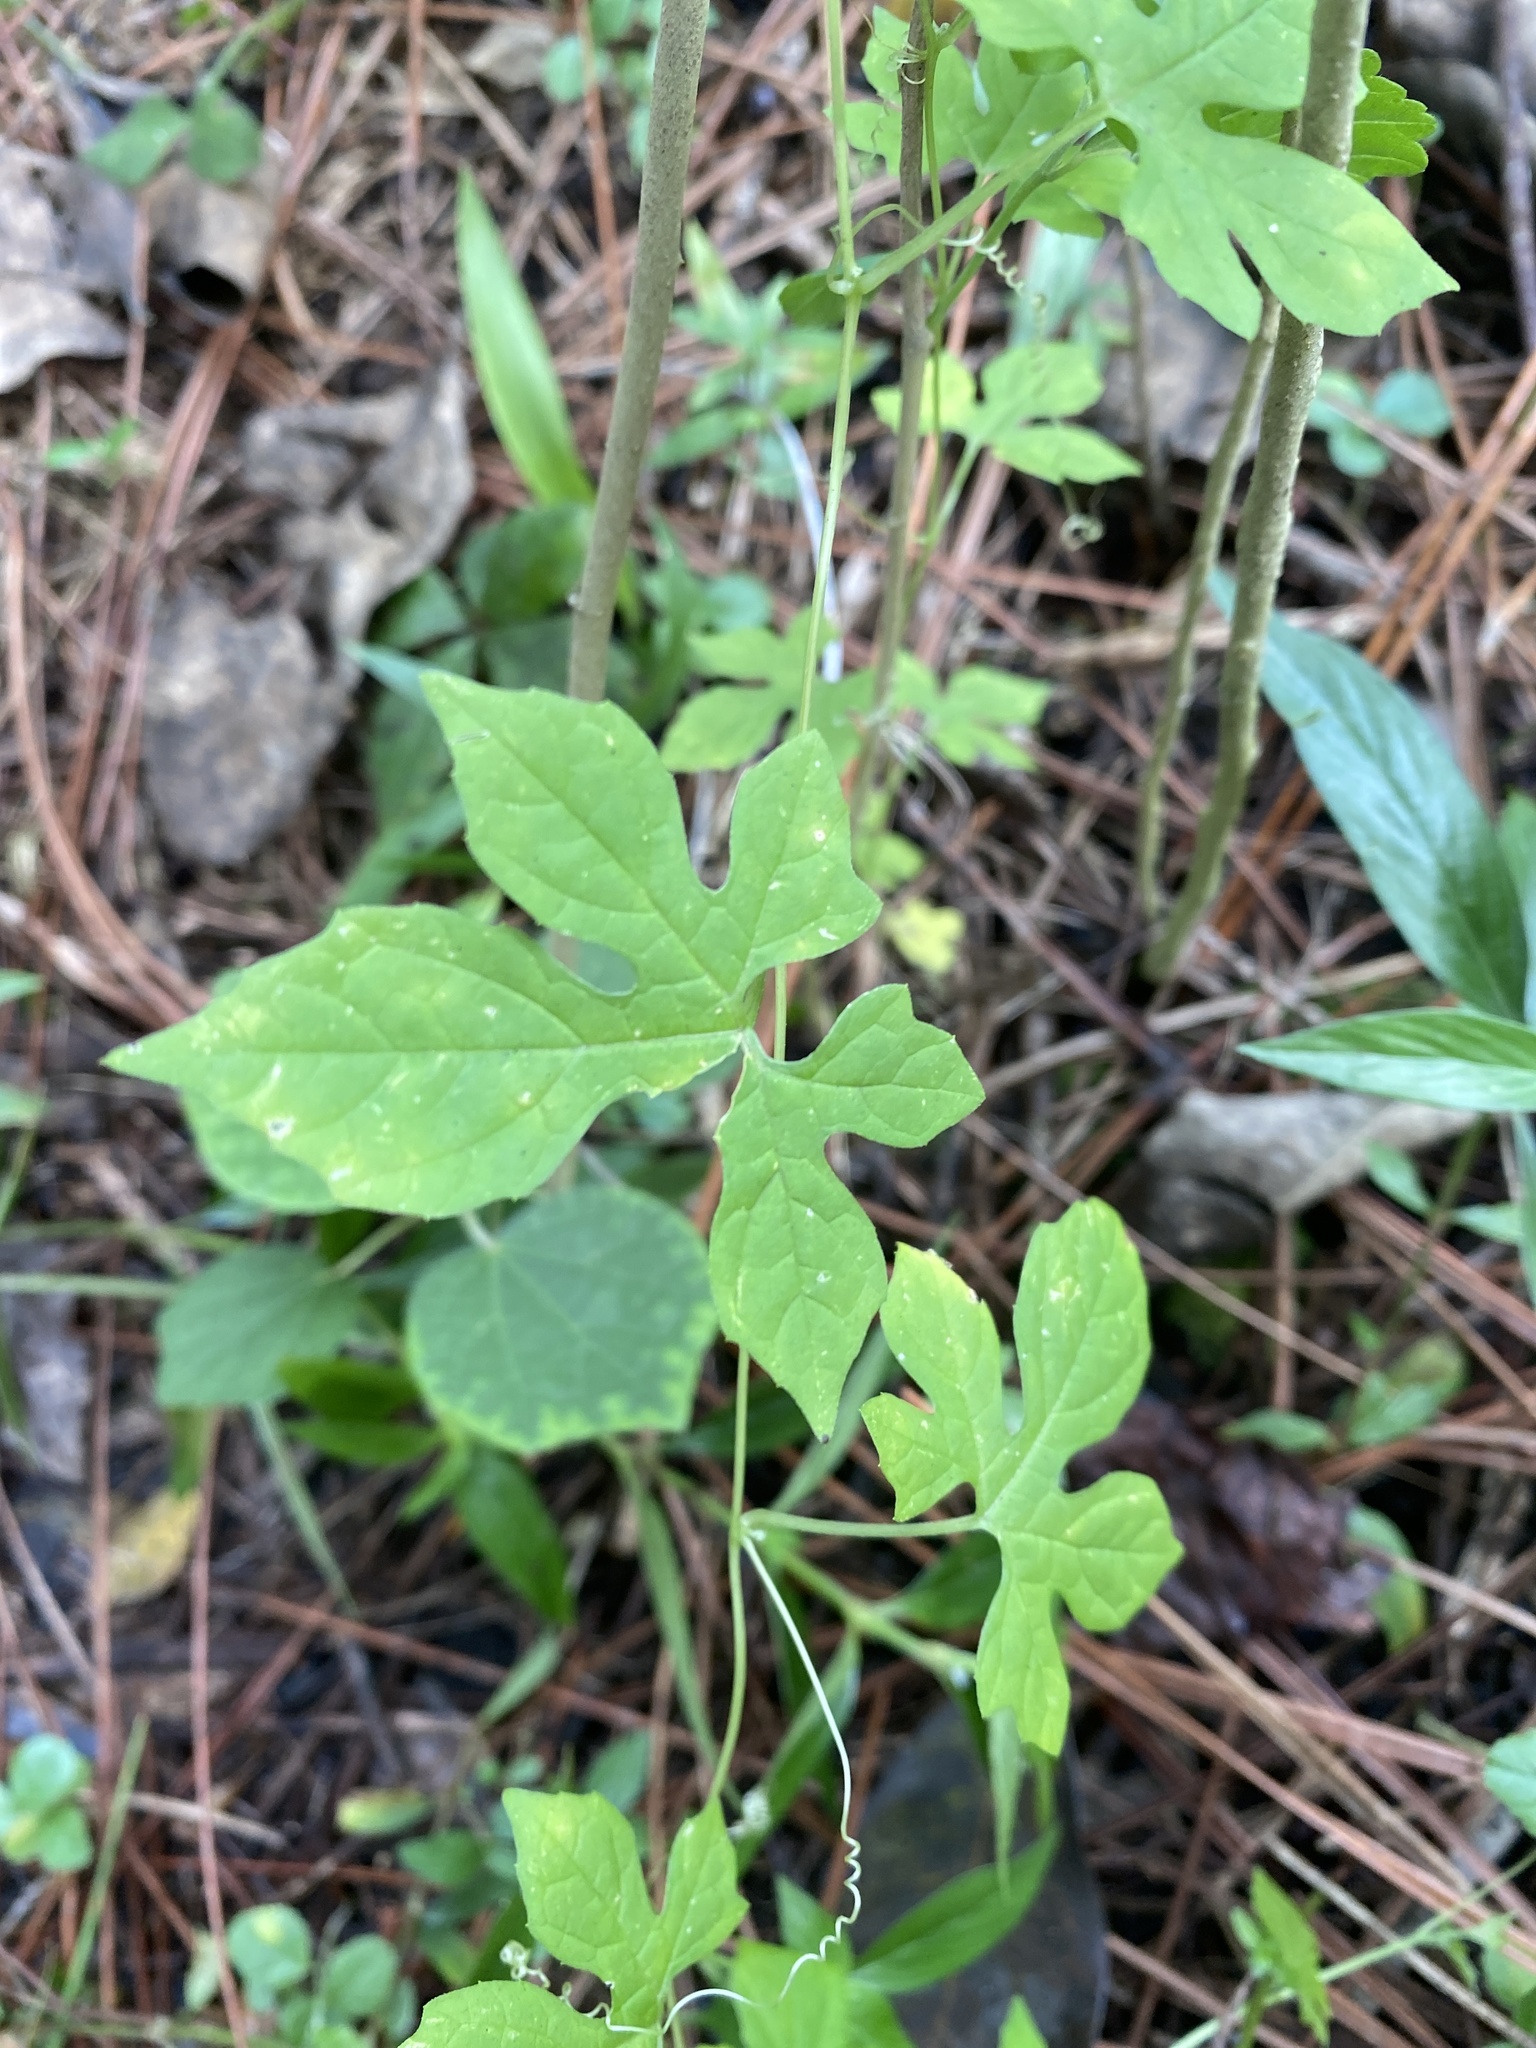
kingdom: Plantae
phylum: Tracheophyta
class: Magnoliopsida
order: Cucurbitales
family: Cucurbitaceae
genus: Momordica
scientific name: Momordica charantia
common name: Balsampear
